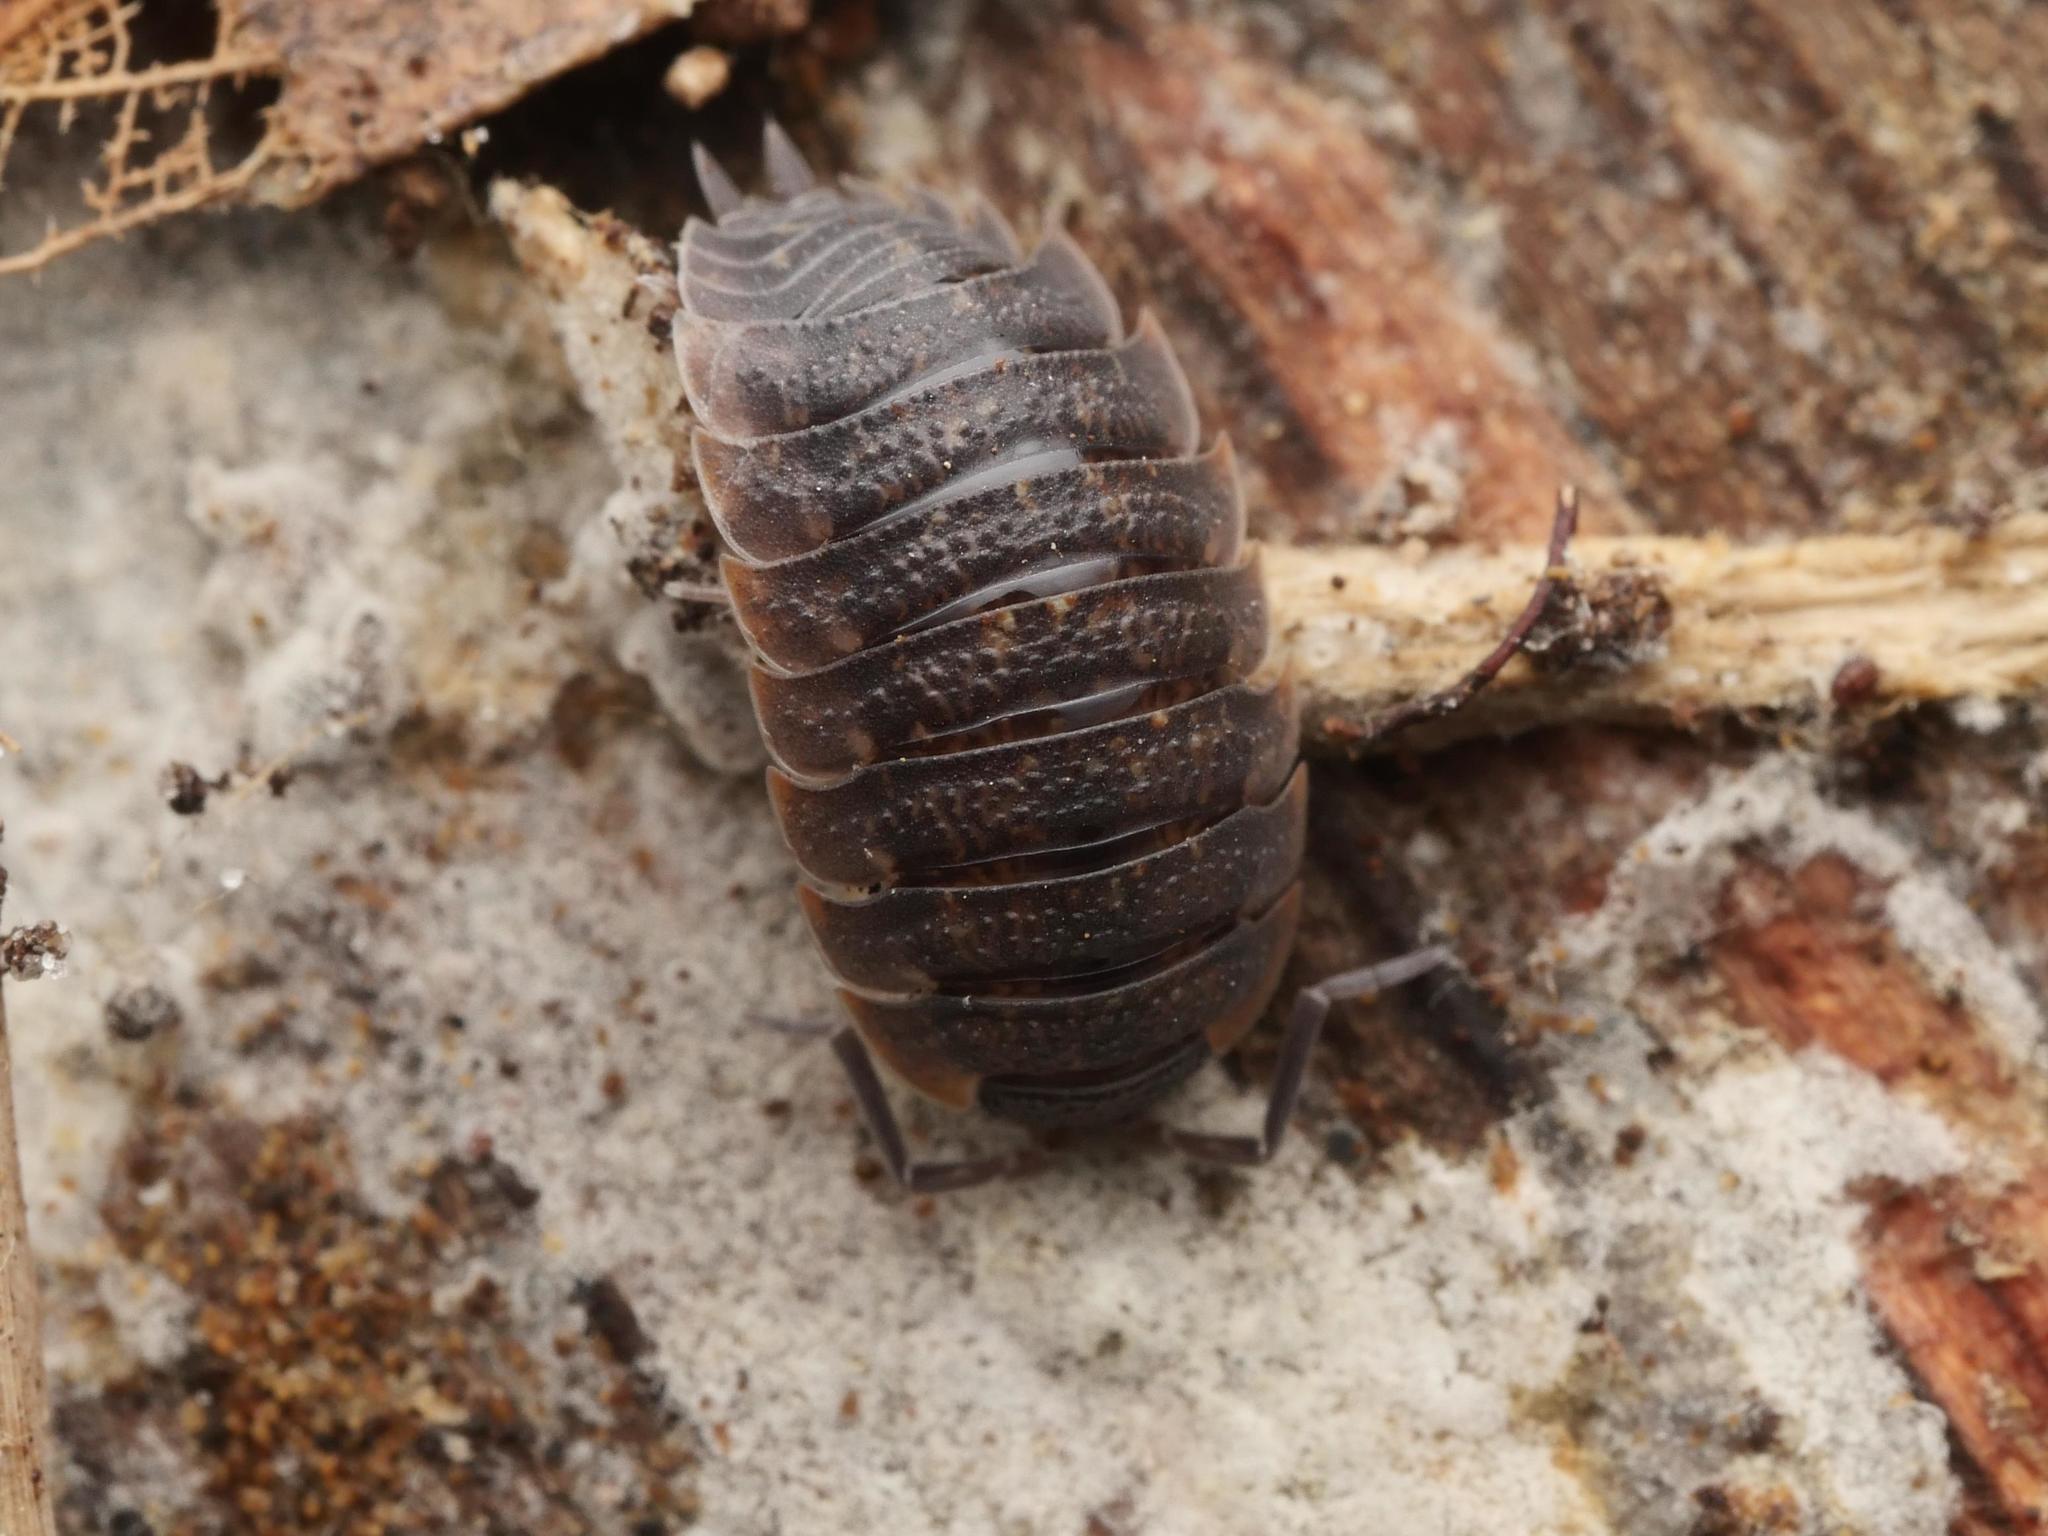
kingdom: Animalia
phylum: Arthropoda
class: Malacostraca
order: Isopoda
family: Porcellionidae
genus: Porcellio
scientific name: Porcellio scaber
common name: Common rough woodlouse
